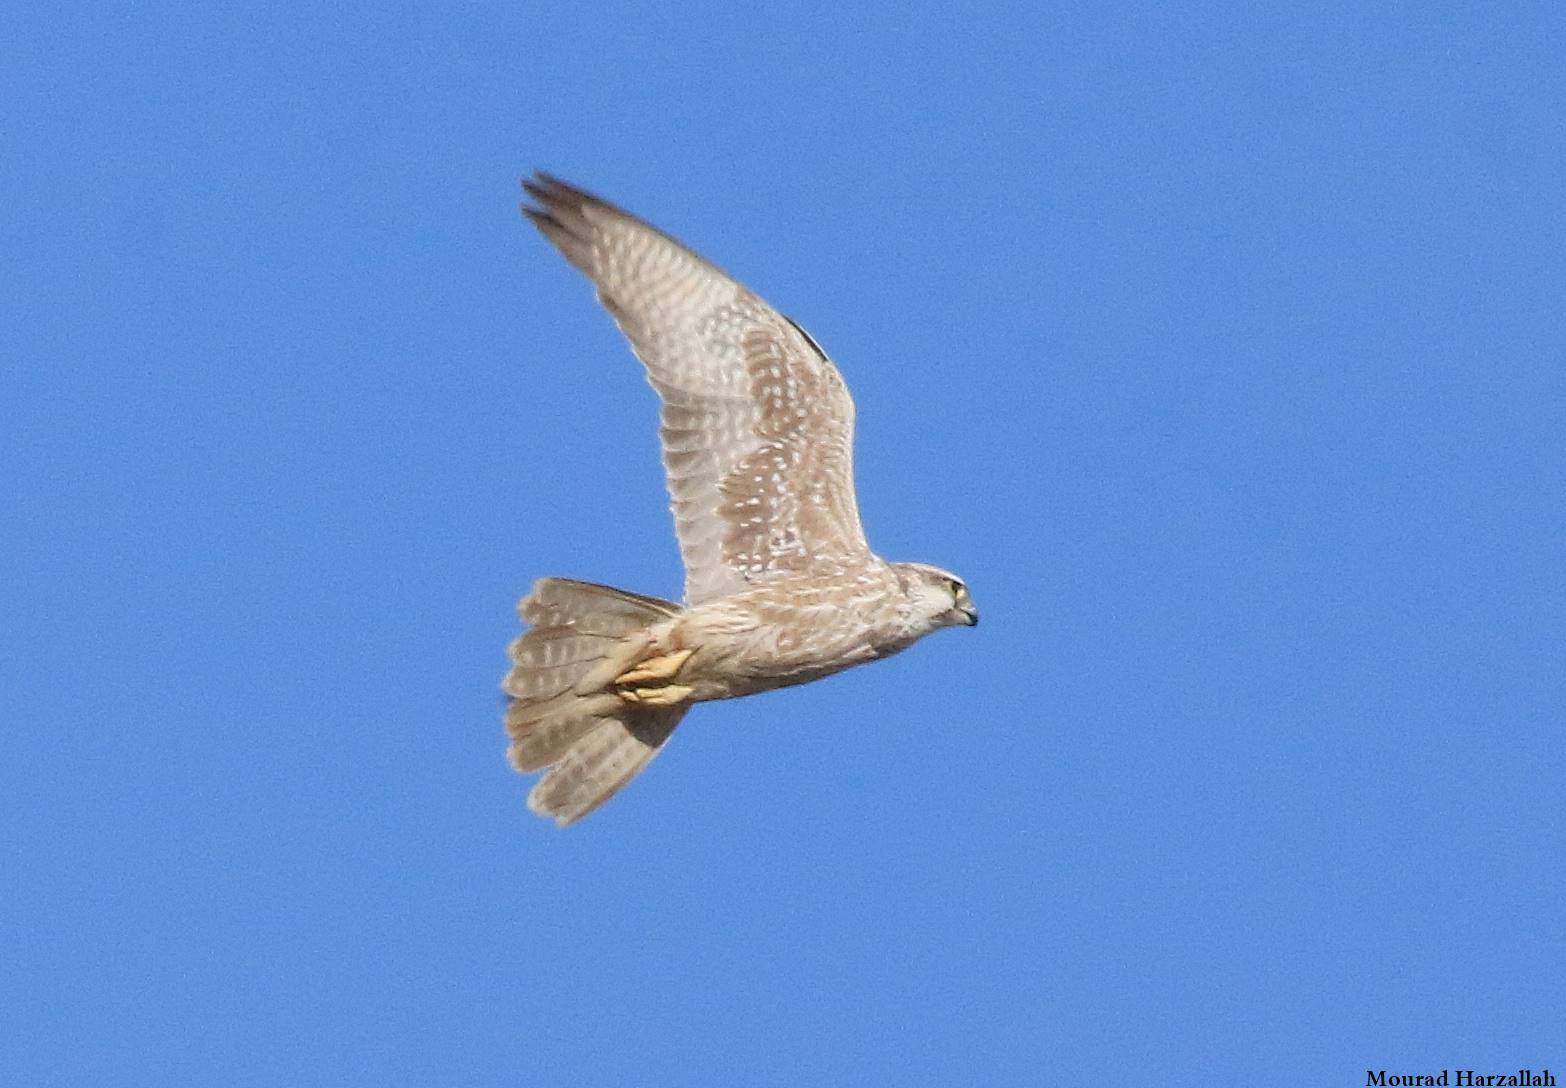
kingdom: Animalia
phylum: Chordata
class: Aves
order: Falconiformes
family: Falconidae
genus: Falco
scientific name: Falco biarmicus
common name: Lanner falcon
